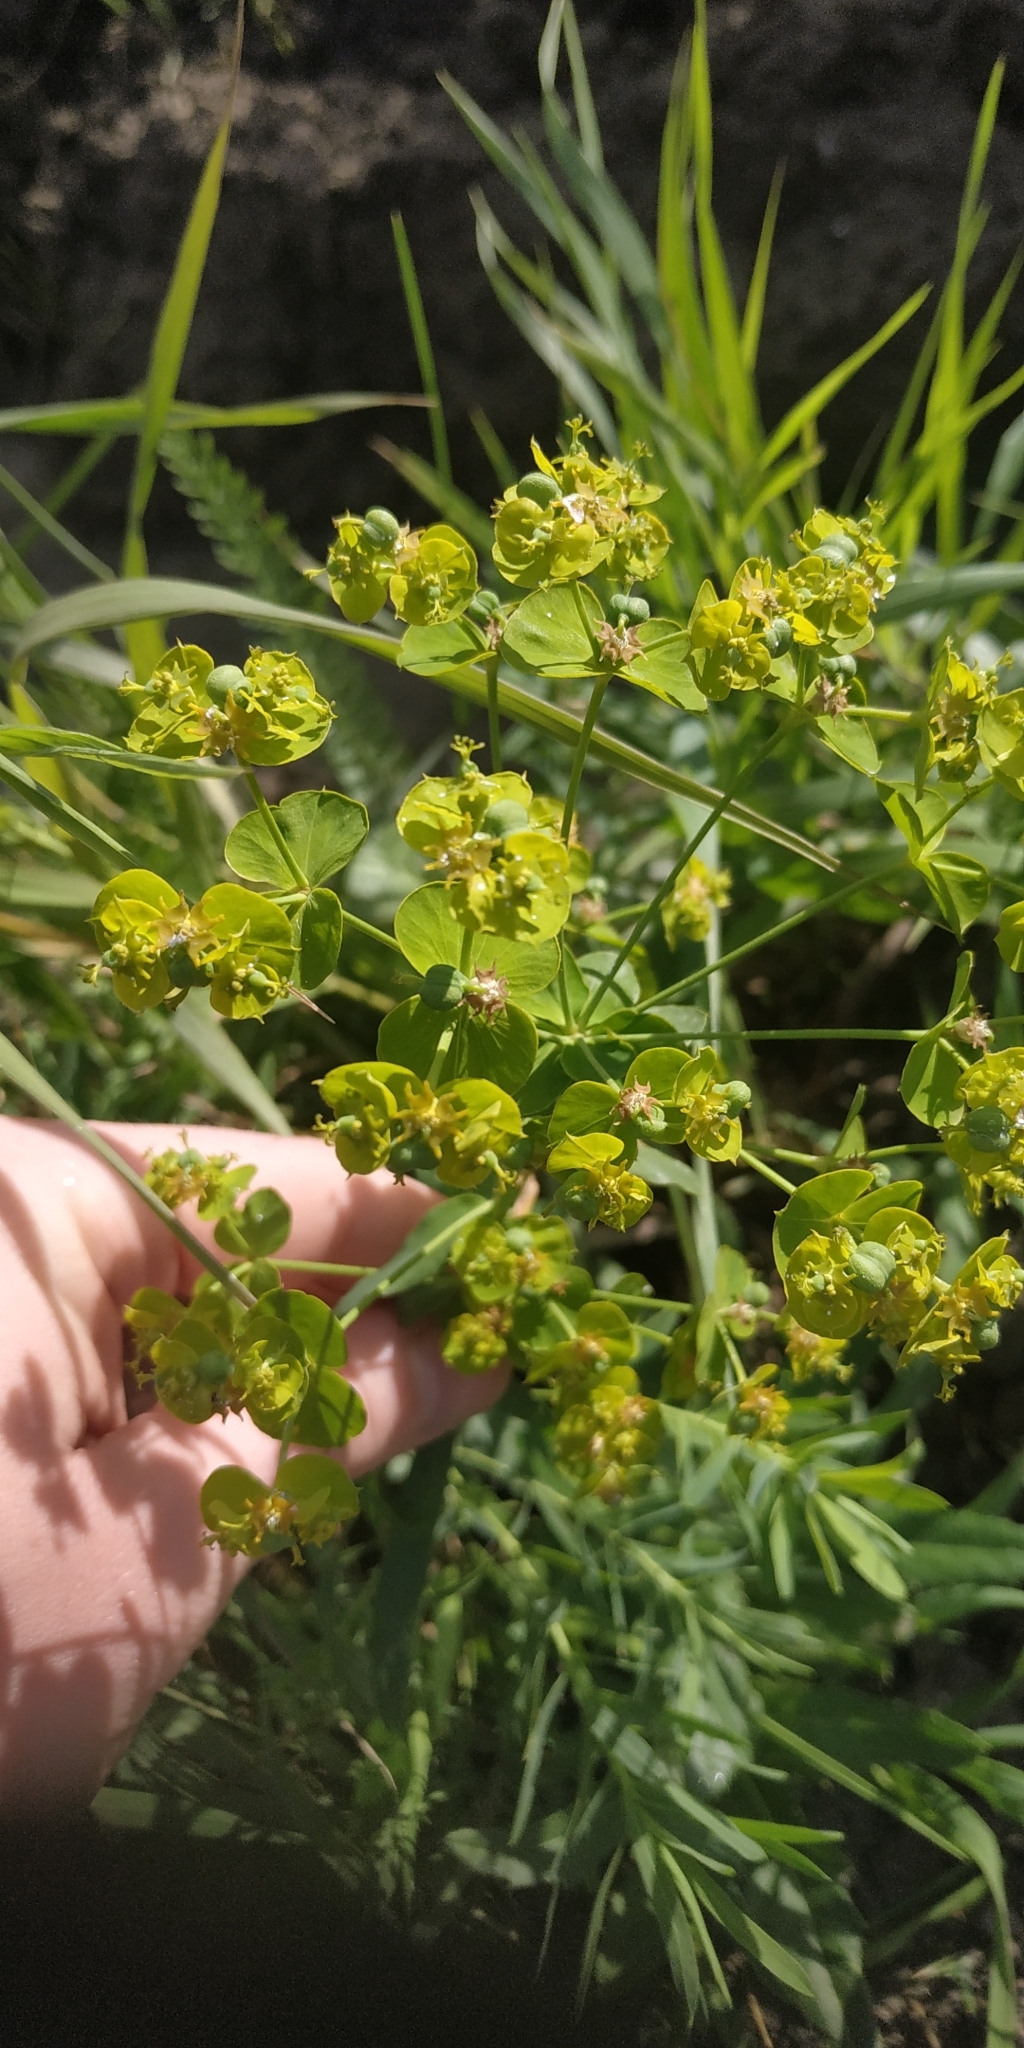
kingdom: Plantae
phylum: Tracheophyta
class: Magnoliopsida
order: Malpighiales
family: Euphorbiaceae
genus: Euphorbia
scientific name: Euphorbia virgata
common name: Leafy spurge
